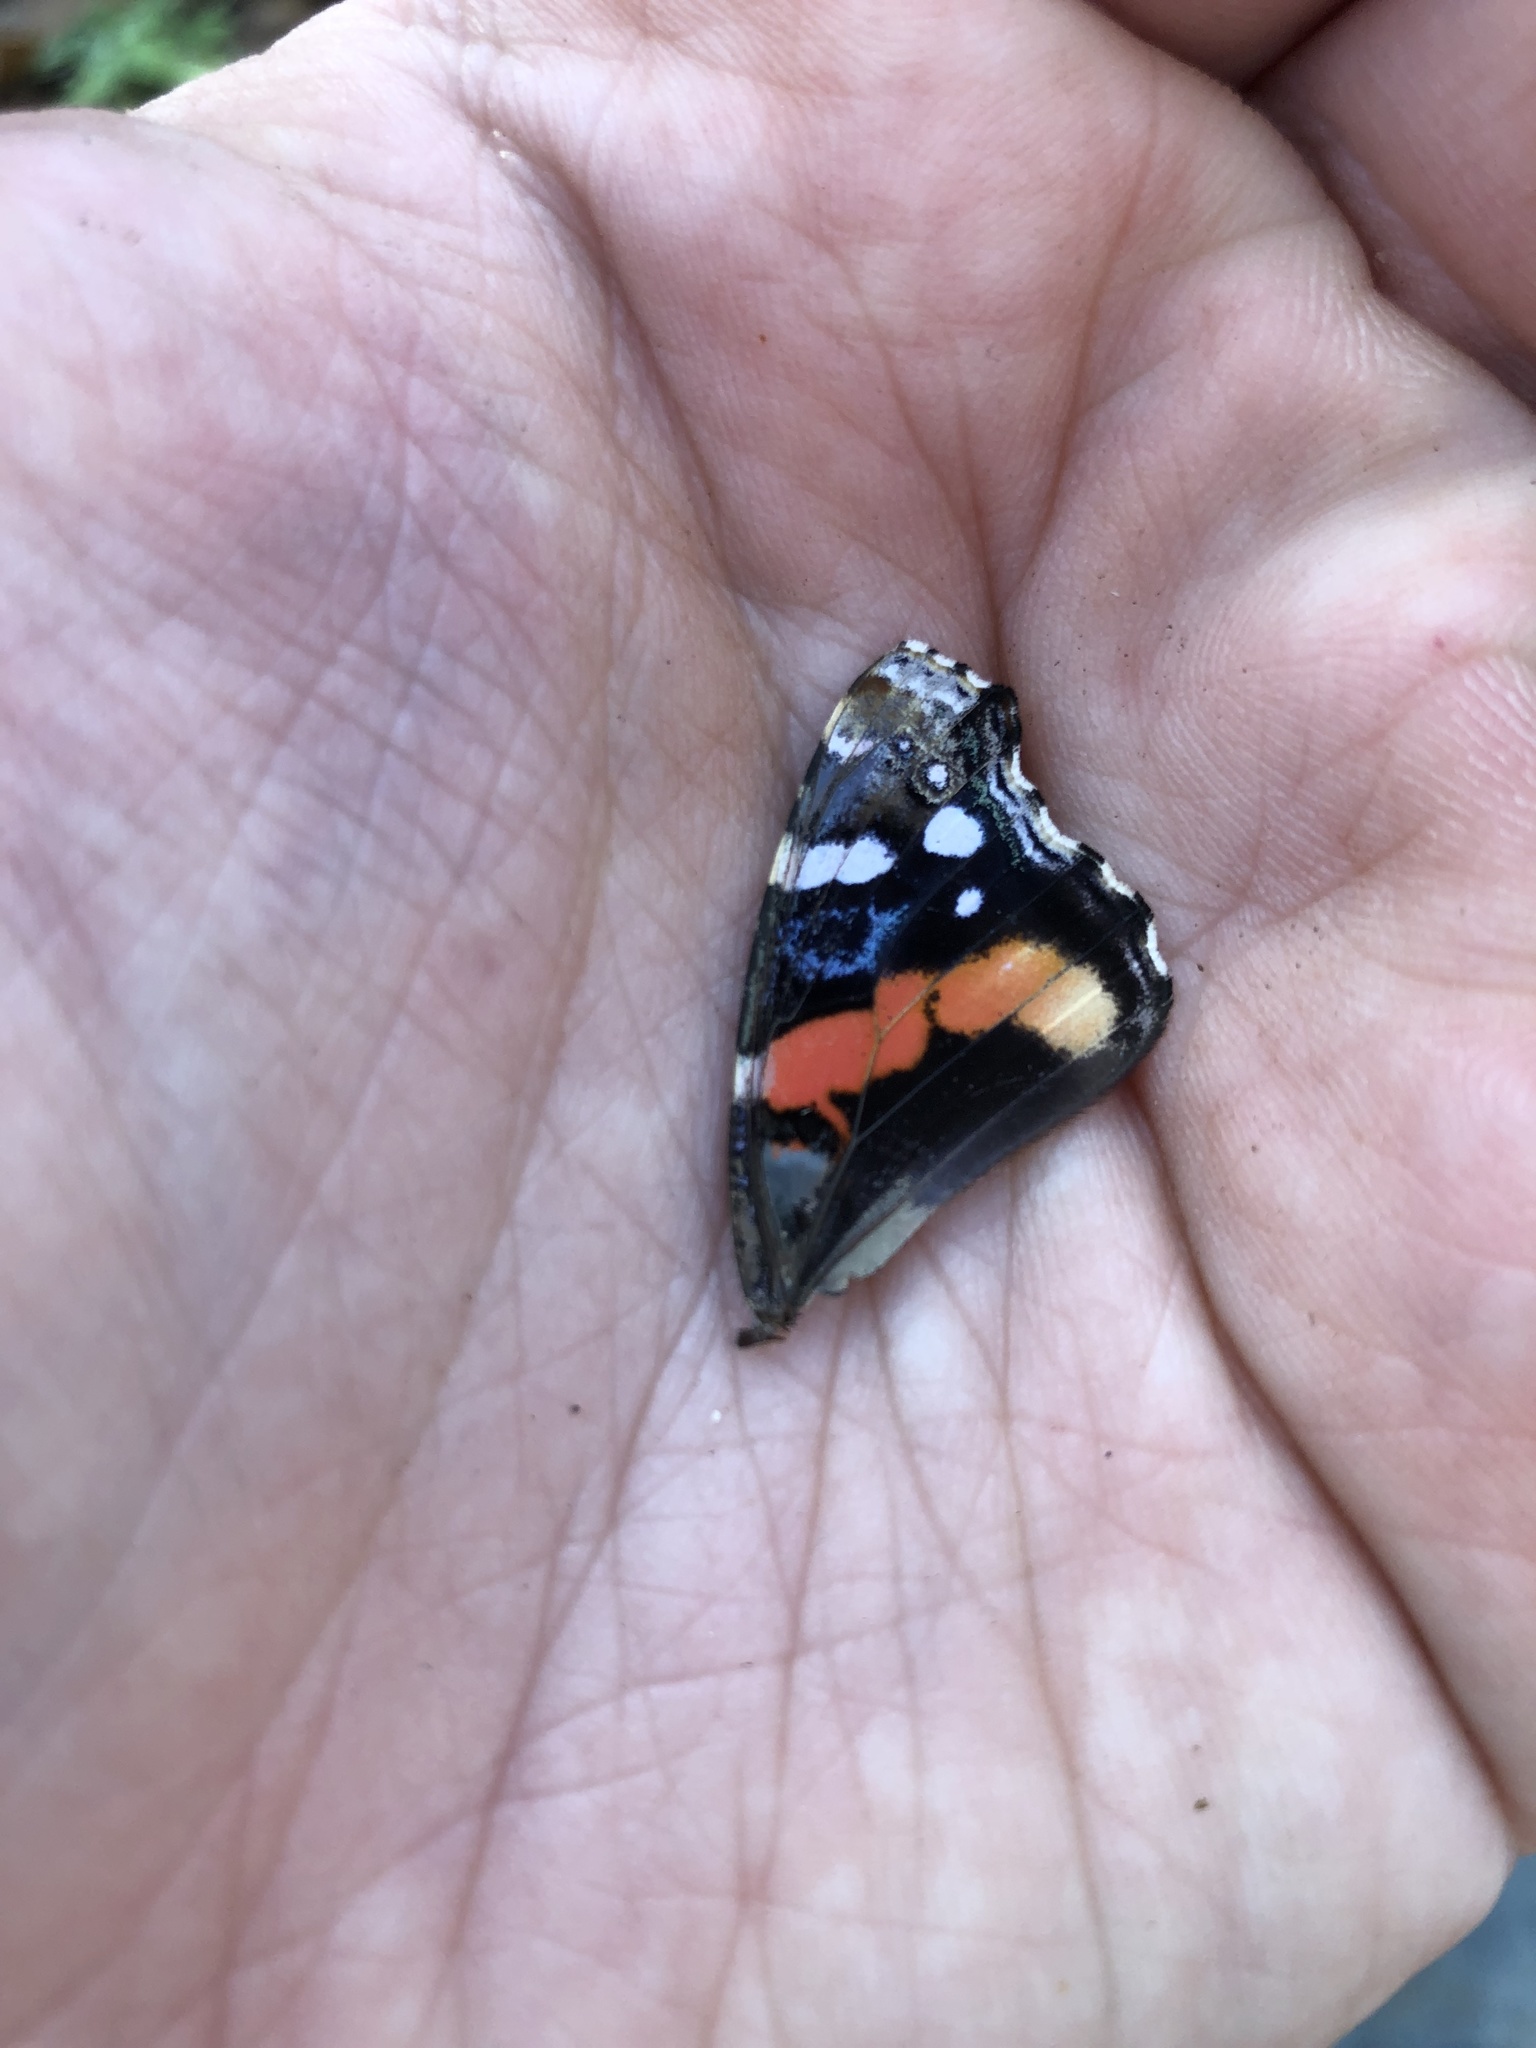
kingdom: Animalia
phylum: Arthropoda
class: Insecta
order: Lepidoptera
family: Nymphalidae
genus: Vanessa
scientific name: Vanessa atalanta
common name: Red admiral
